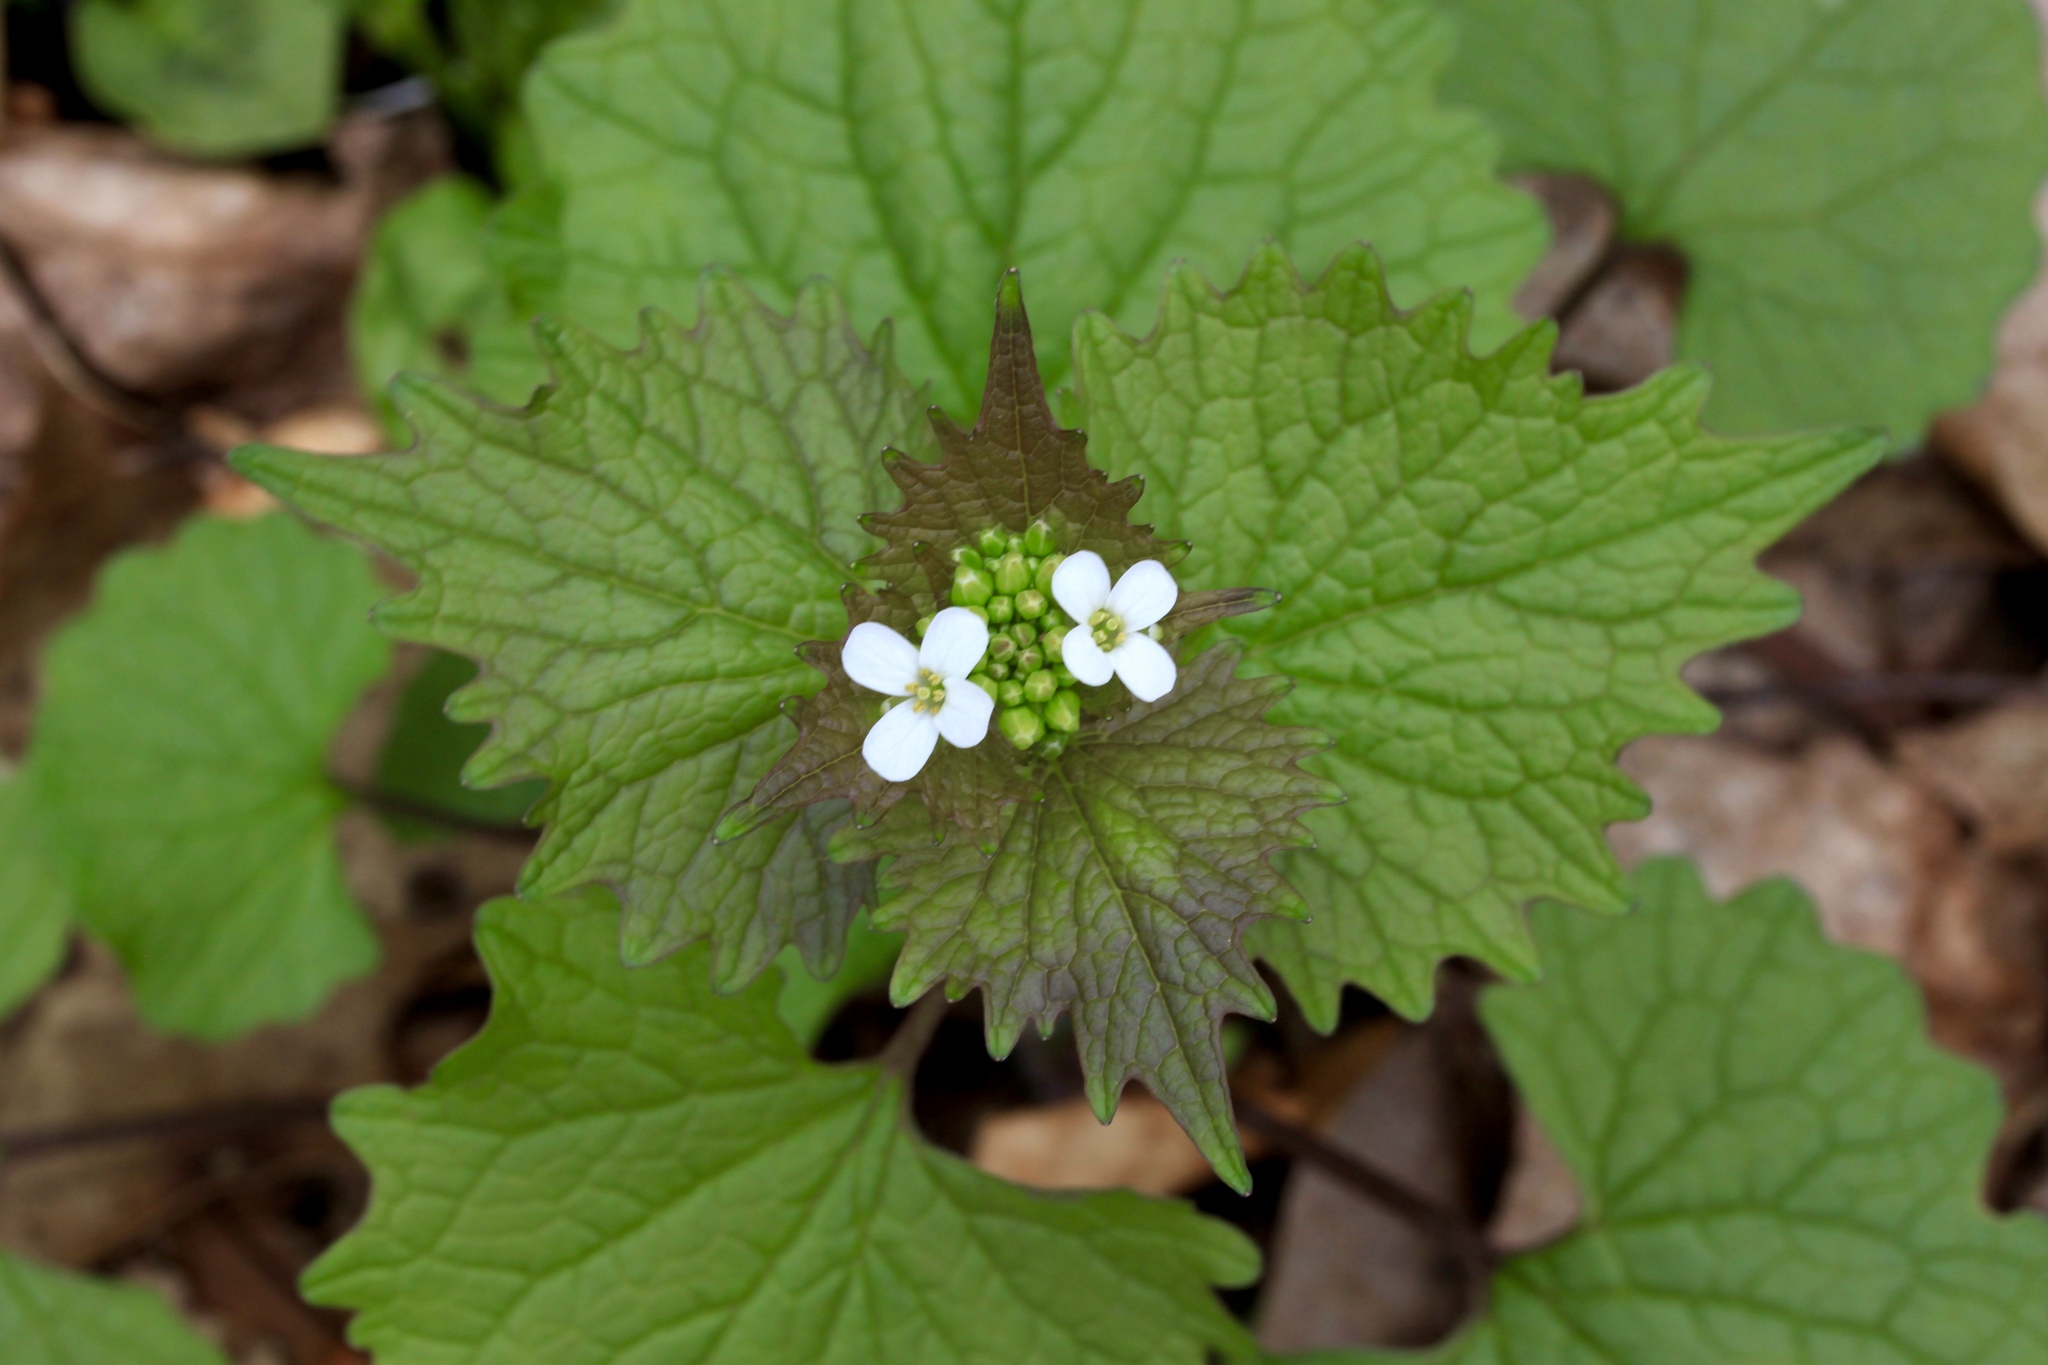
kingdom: Plantae
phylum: Tracheophyta
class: Magnoliopsida
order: Brassicales
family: Brassicaceae
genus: Alliaria
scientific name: Alliaria petiolata
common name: Garlic mustard
